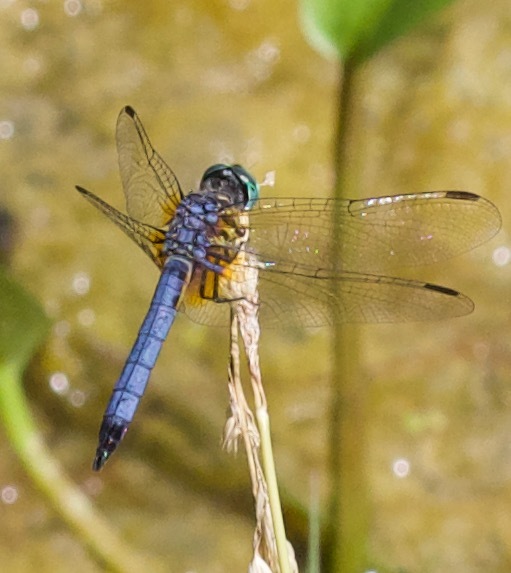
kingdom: Animalia
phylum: Arthropoda
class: Insecta
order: Odonata
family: Libellulidae
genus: Pachydiplax
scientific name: Pachydiplax longipennis
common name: Blue dasher
